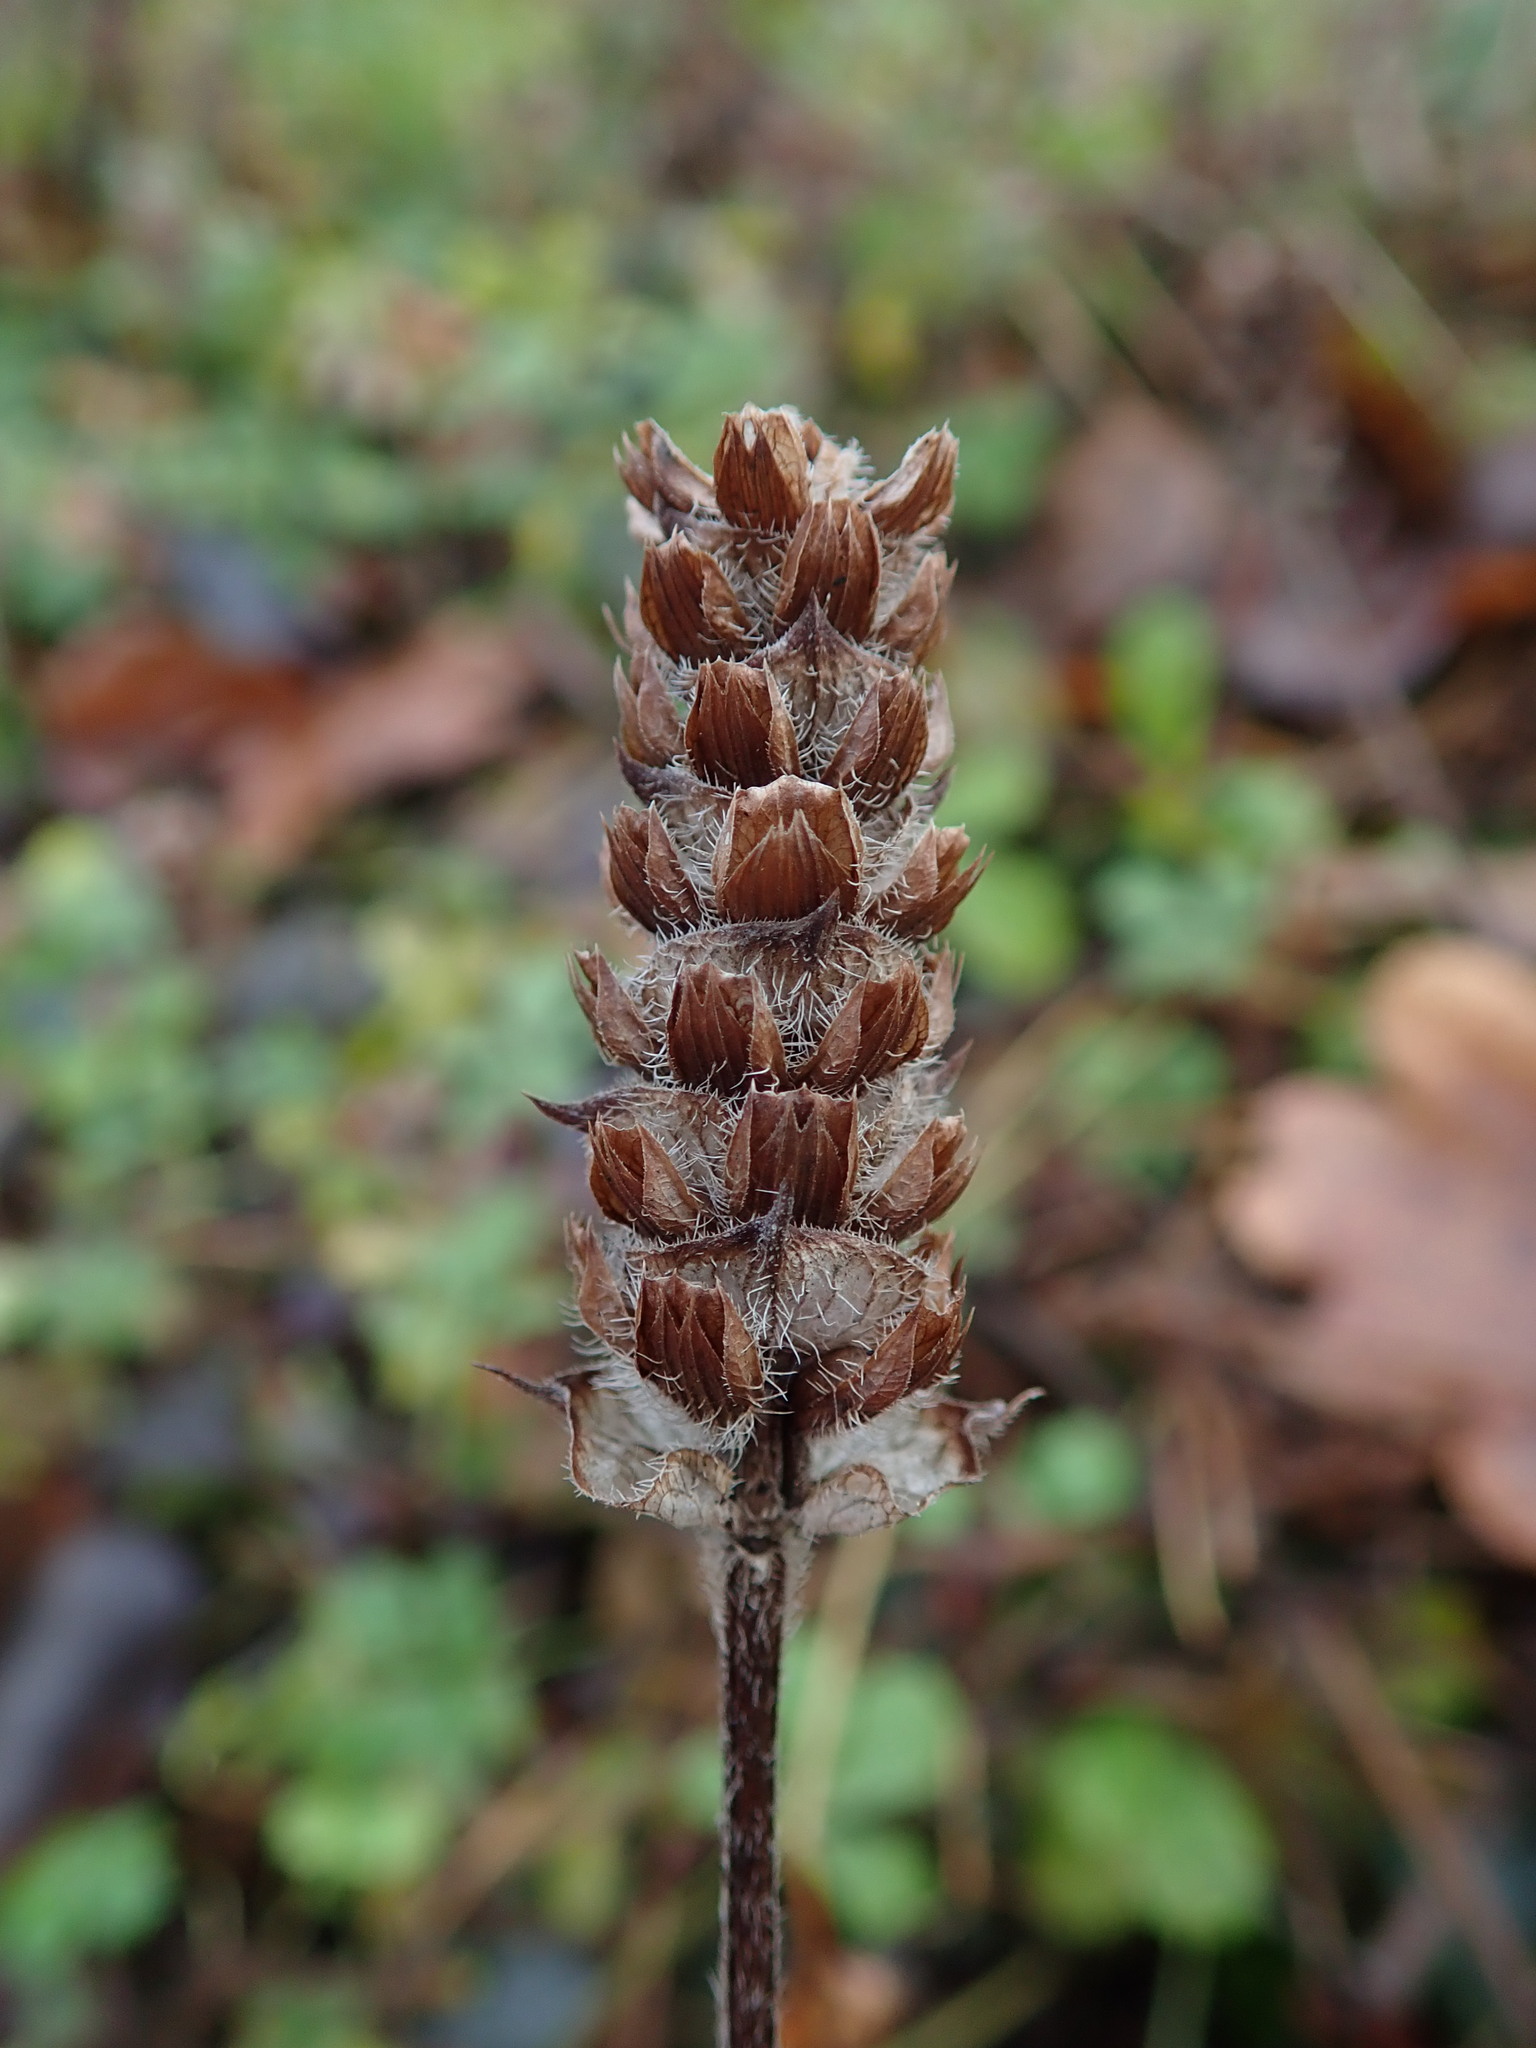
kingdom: Plantae
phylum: Tracheophyta
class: Magnoliopsida
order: Lamiales
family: Lamiaceae
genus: Prunella
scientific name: Prunella vulgaris
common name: Heal-all
